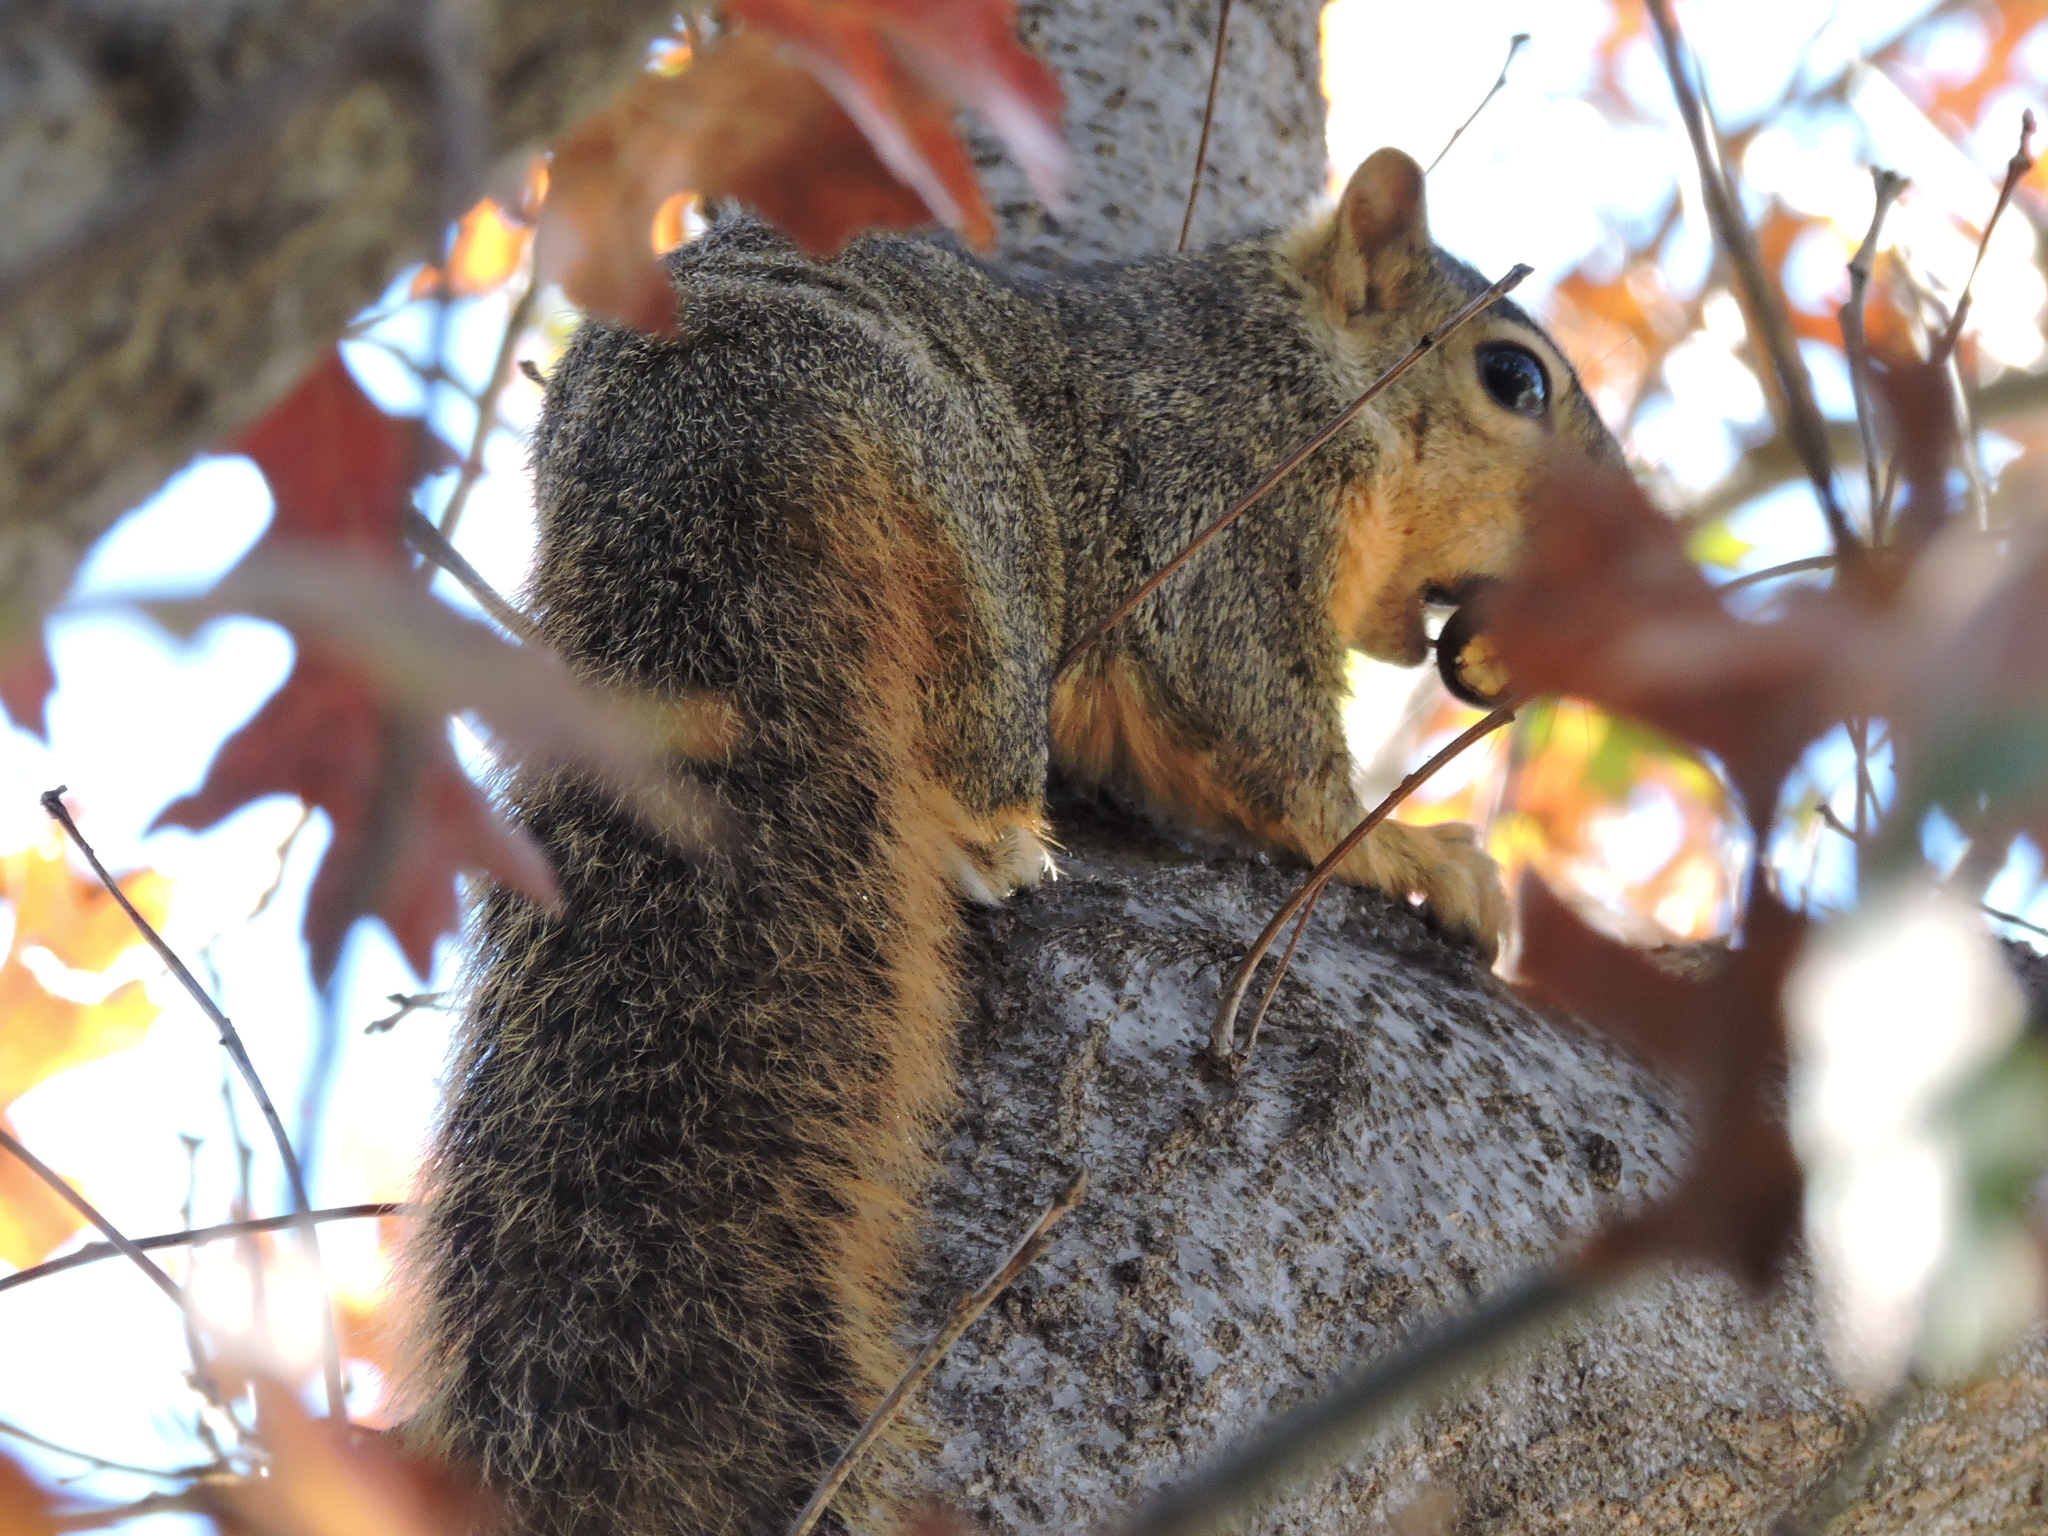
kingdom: Animalia
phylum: Chordata
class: Mammalia
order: Rodentia
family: Sciuridae
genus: Sciurus
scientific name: Sciurus niger
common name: Fox squirrel
